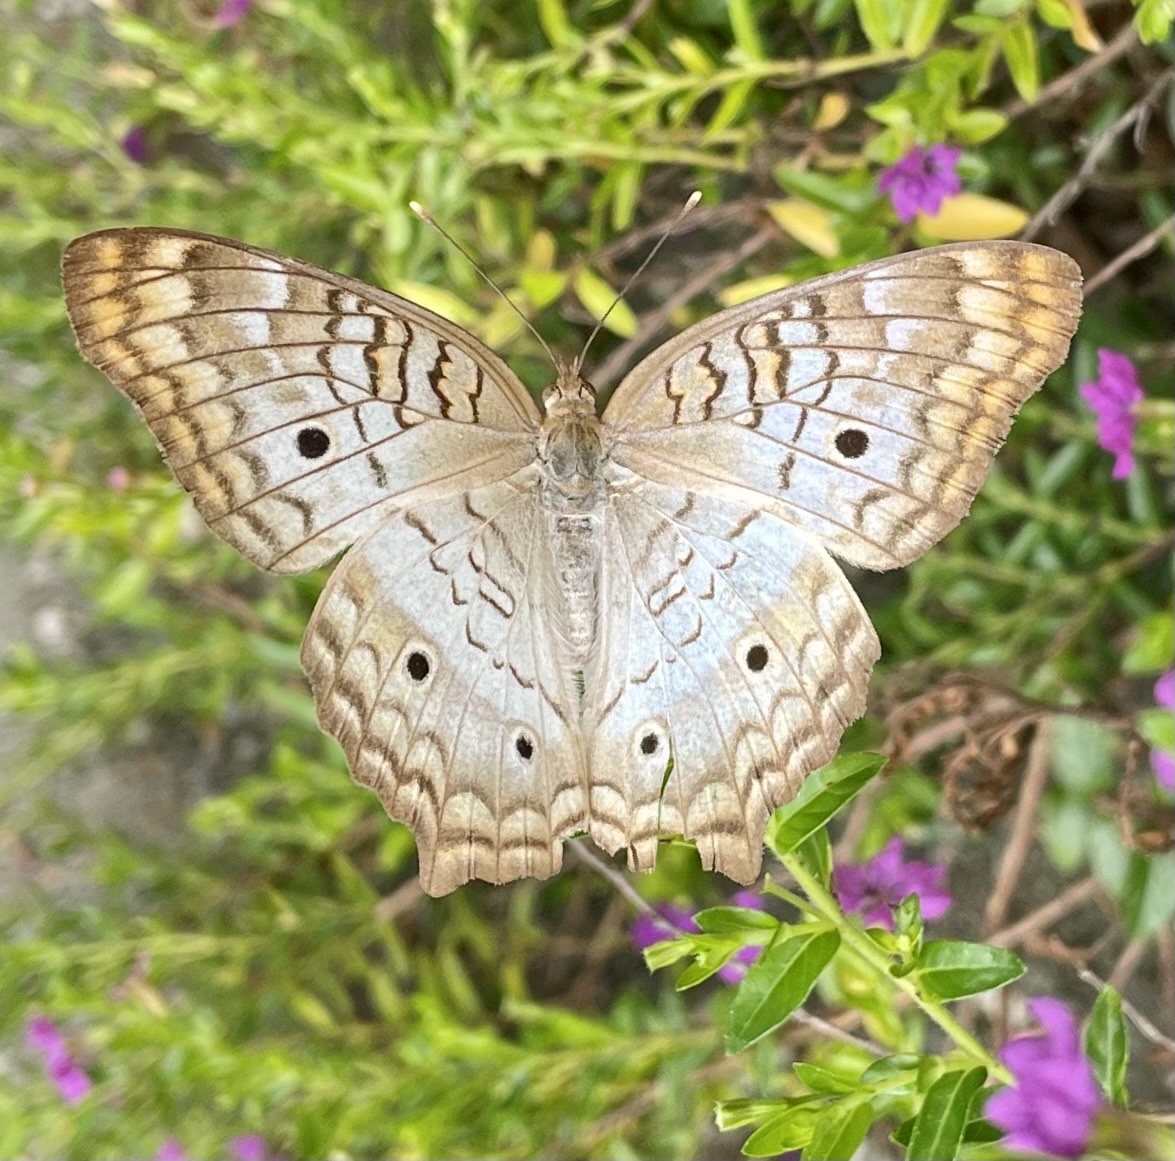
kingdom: Animalia
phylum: Arthropoda
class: Insecta
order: Lepidoptera
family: Nymphalidae
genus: Anartia
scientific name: Anartia jatrophae
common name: White peacock
